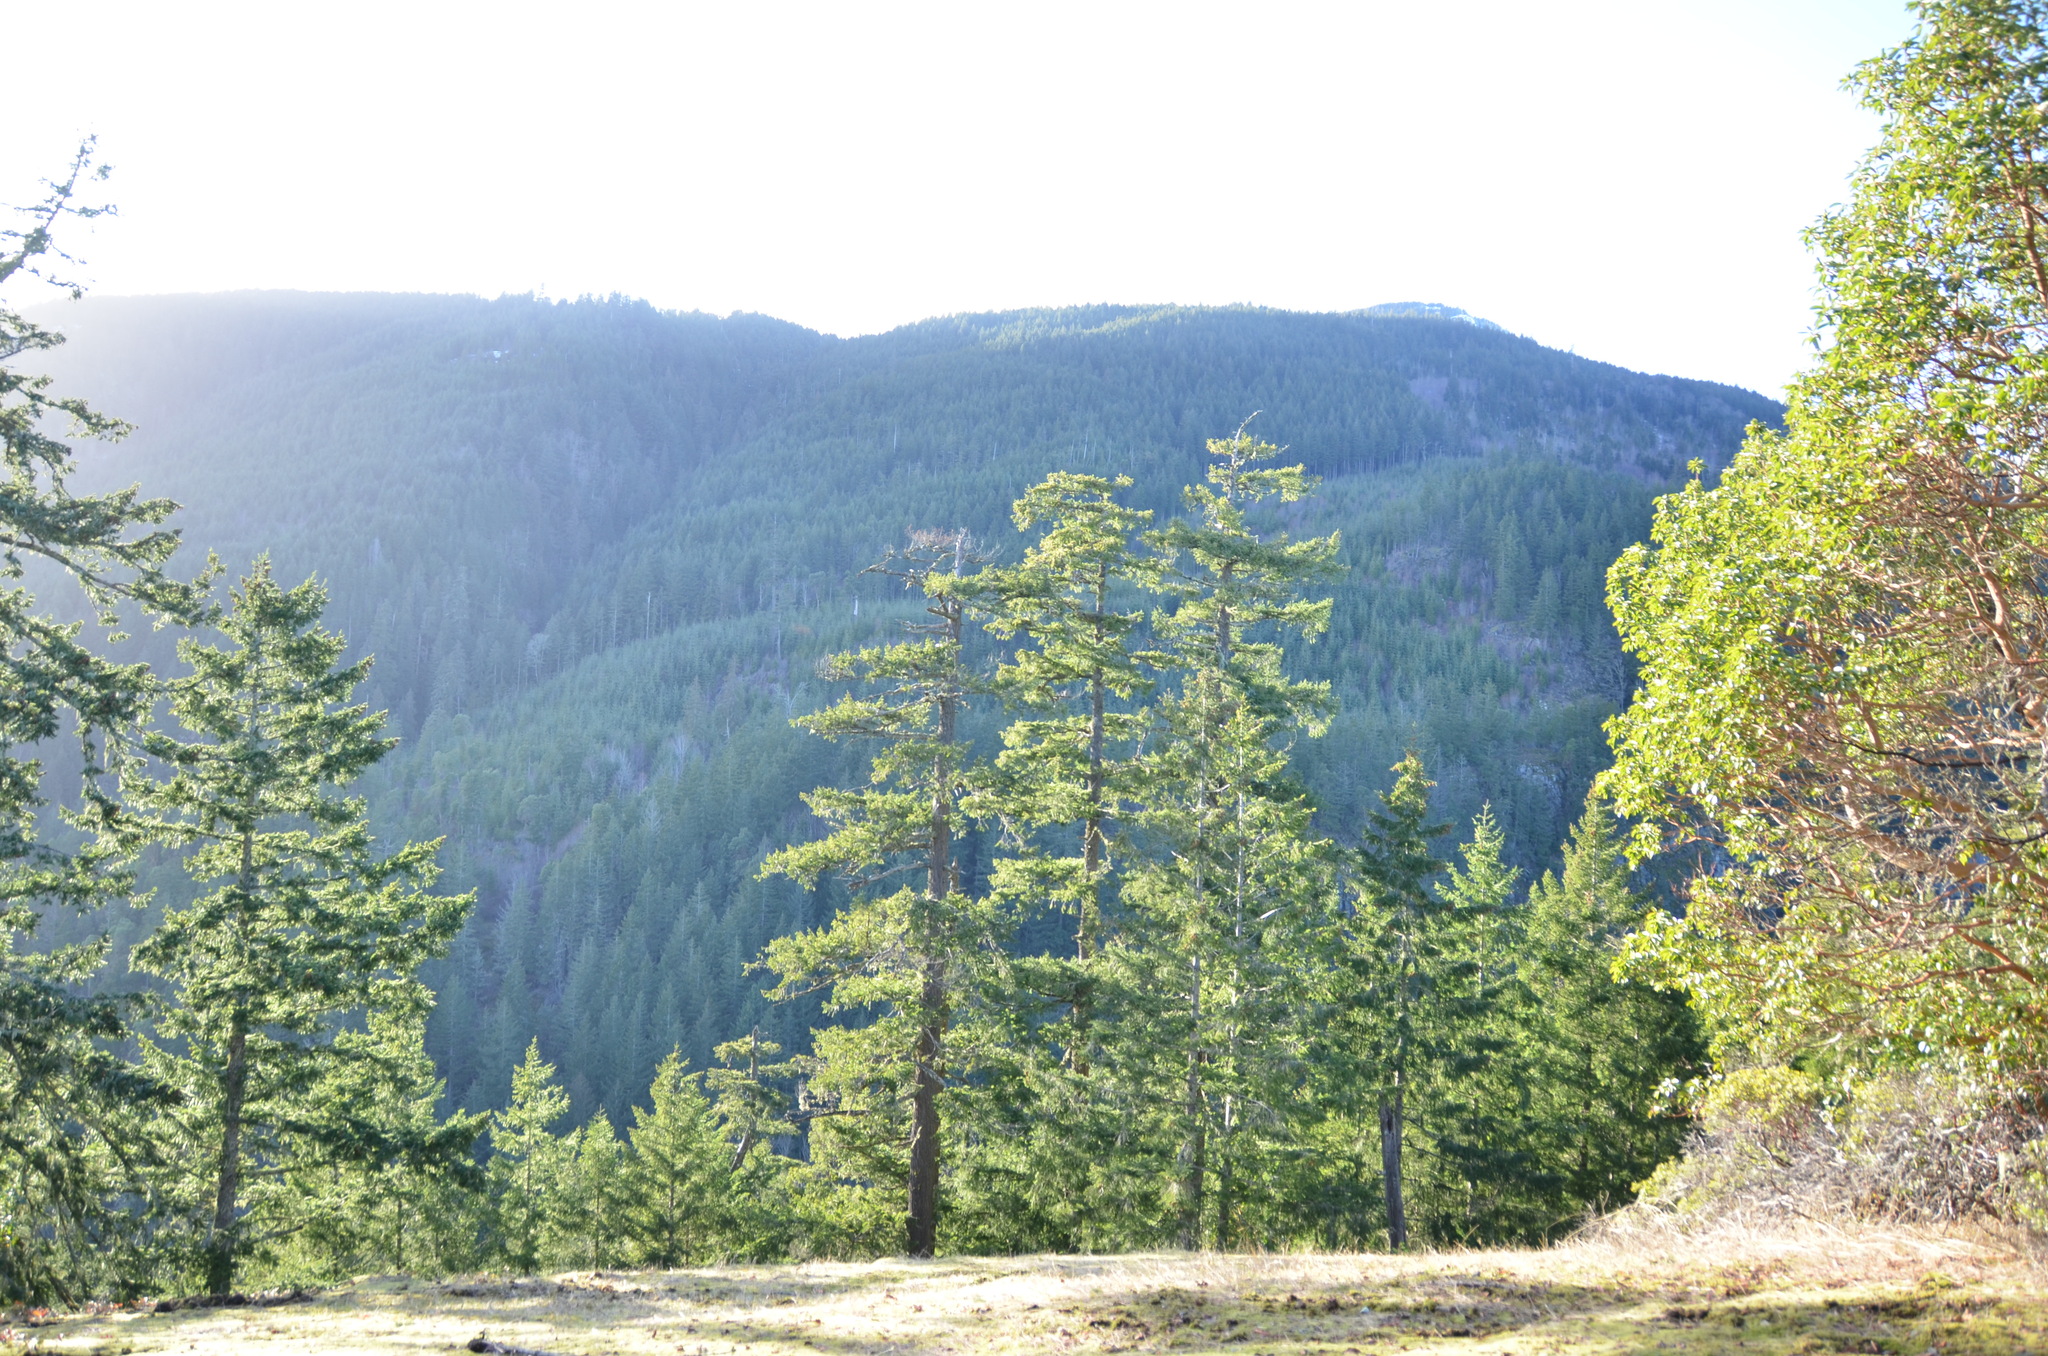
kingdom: Plantae
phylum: Tracheophyta
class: Pinopsida
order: Pinales
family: Pinaceae
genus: Pseudotsuga
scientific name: Pseudotsuga menziesii
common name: Douglas fir
